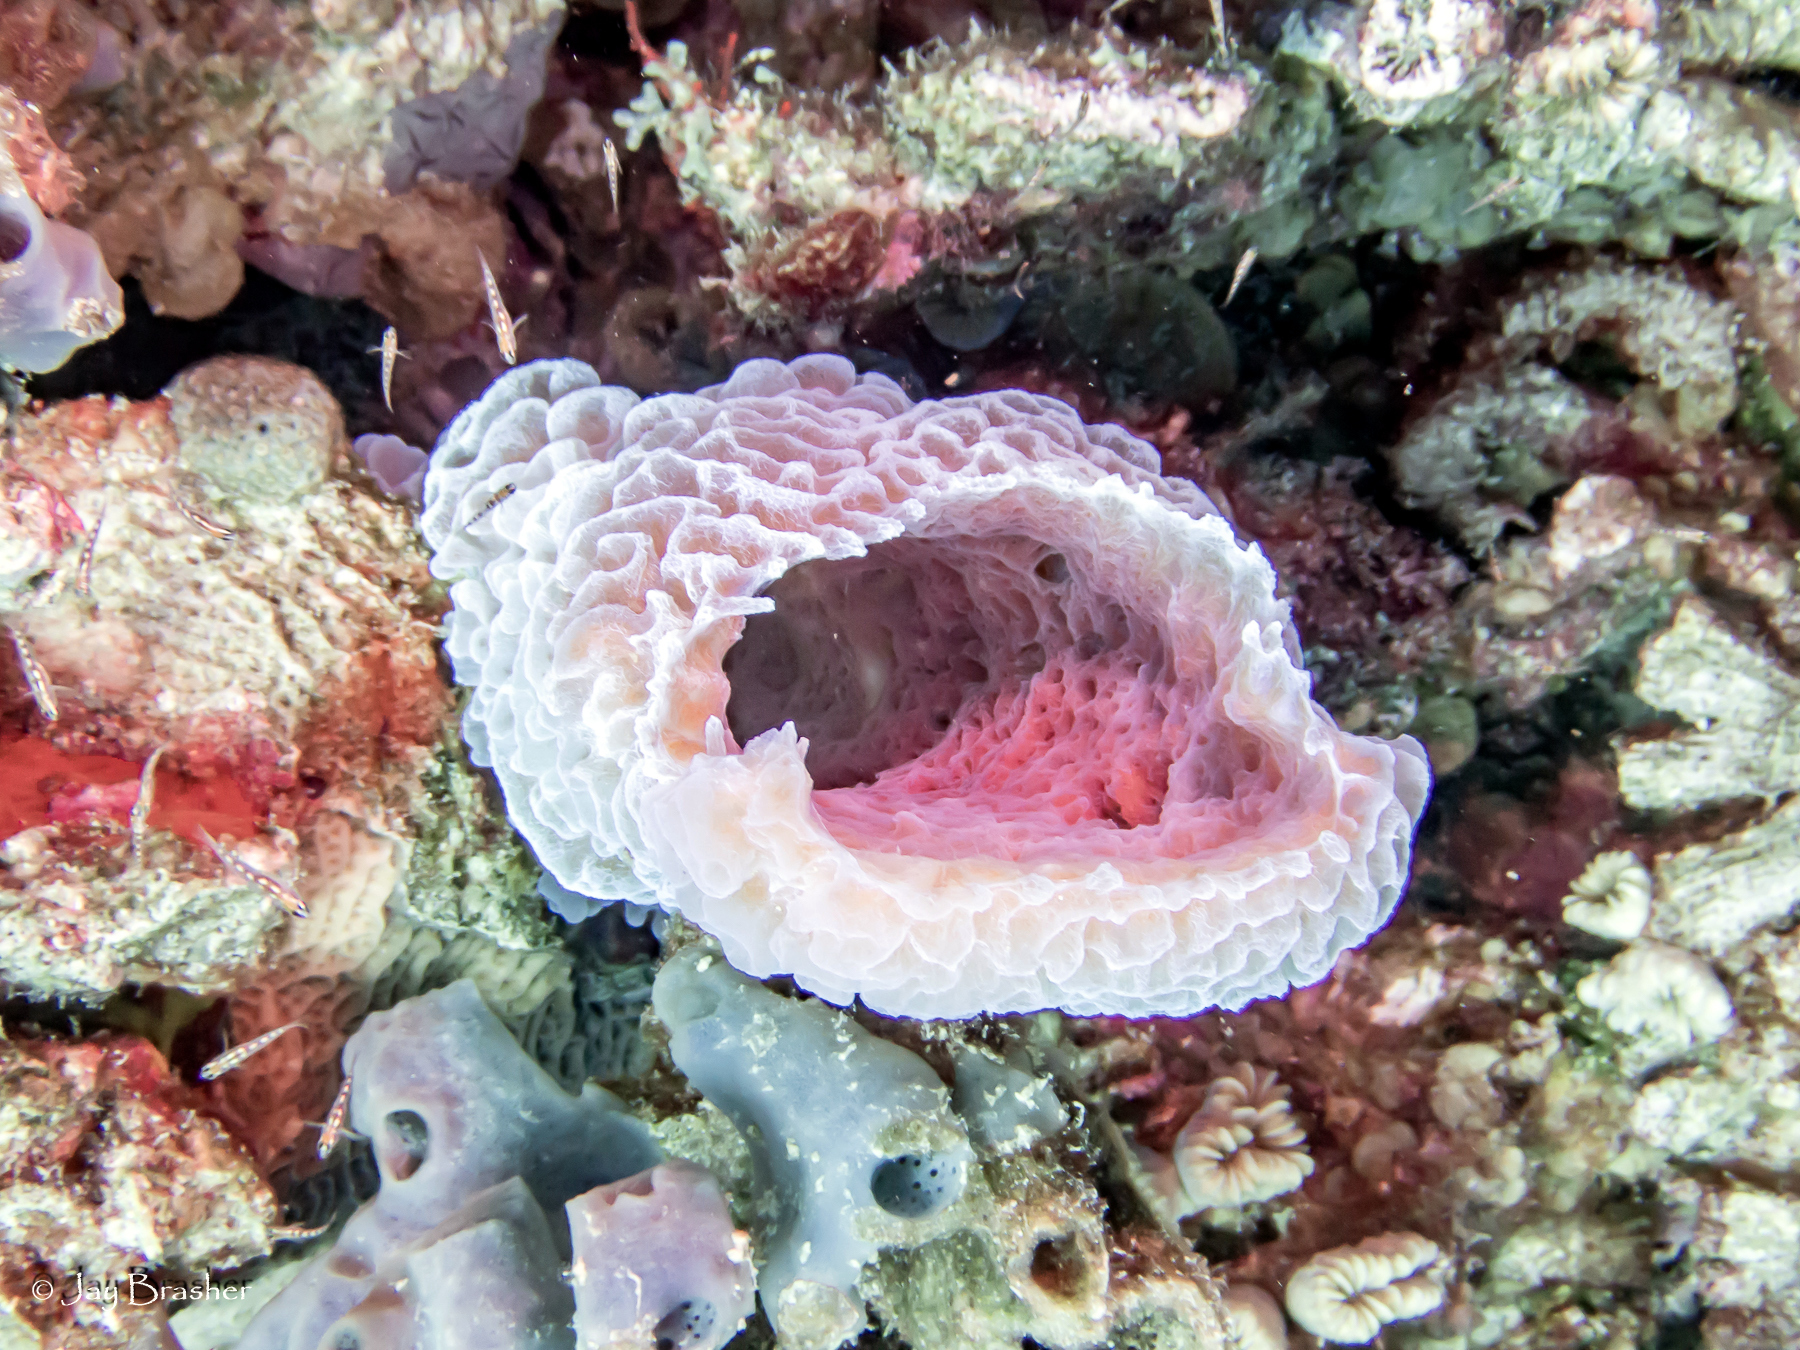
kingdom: Animalia
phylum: Porifera
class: Demospongiae
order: Haplosclerida
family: Callyspongiidae
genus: Callyspongia
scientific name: Callyspongia plicifera
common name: Azure vase sponge
